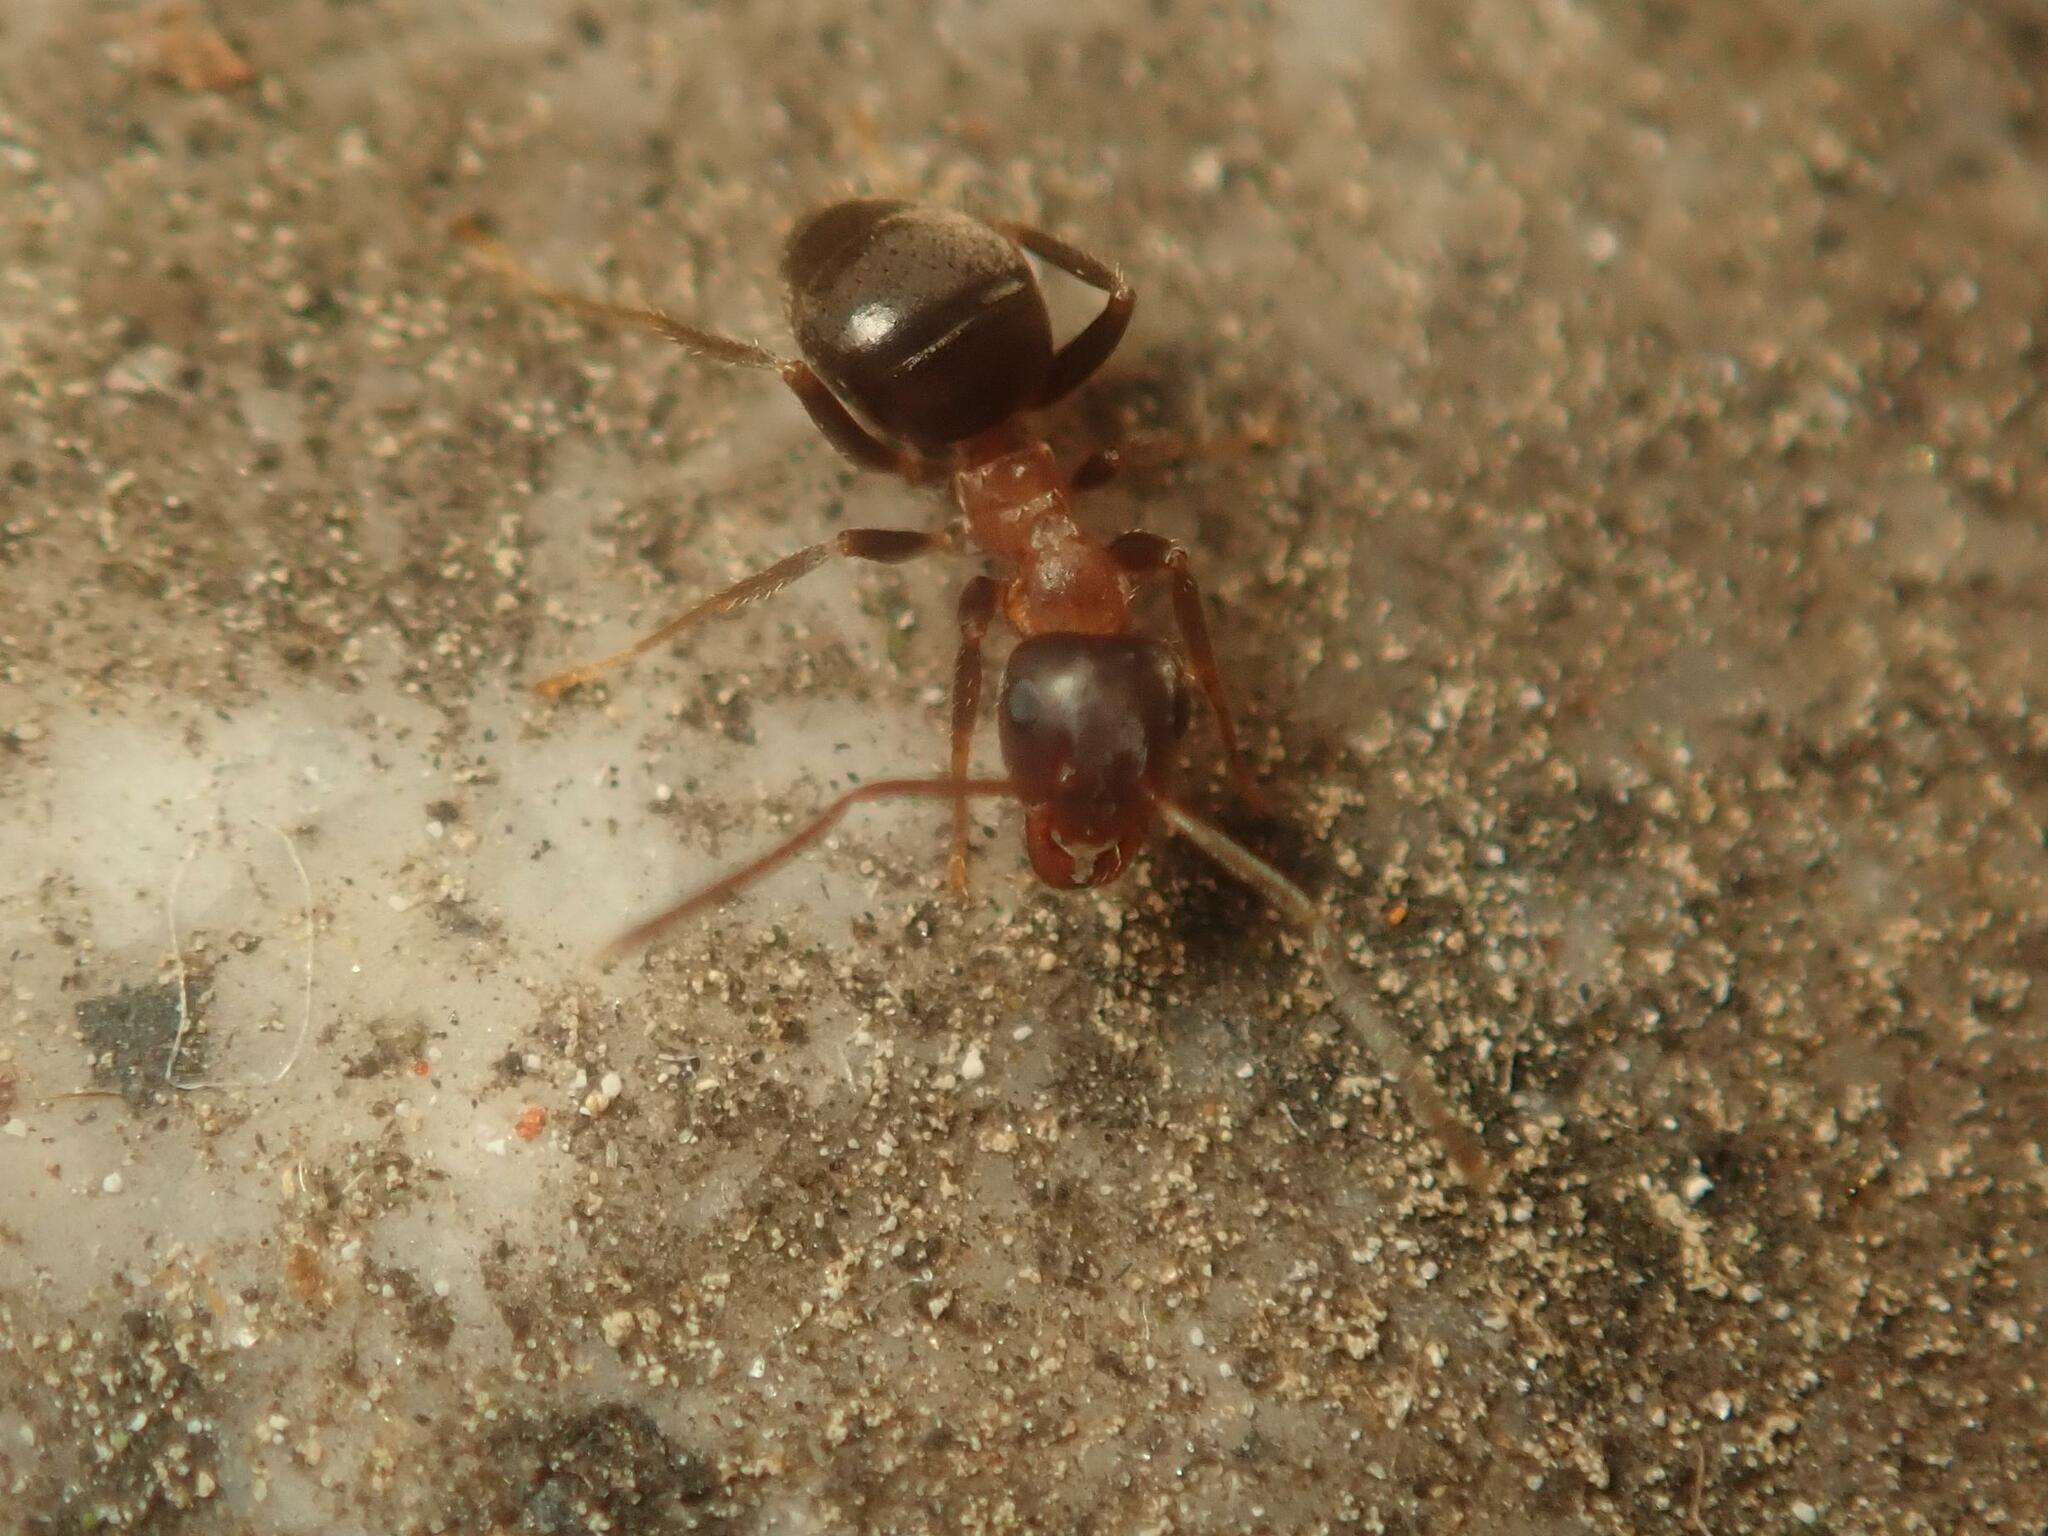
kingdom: Animalia
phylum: Arthropoda
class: Insecta
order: Hymenoptera
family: Formicidae
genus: Lasius
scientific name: Lasius emarginatus
